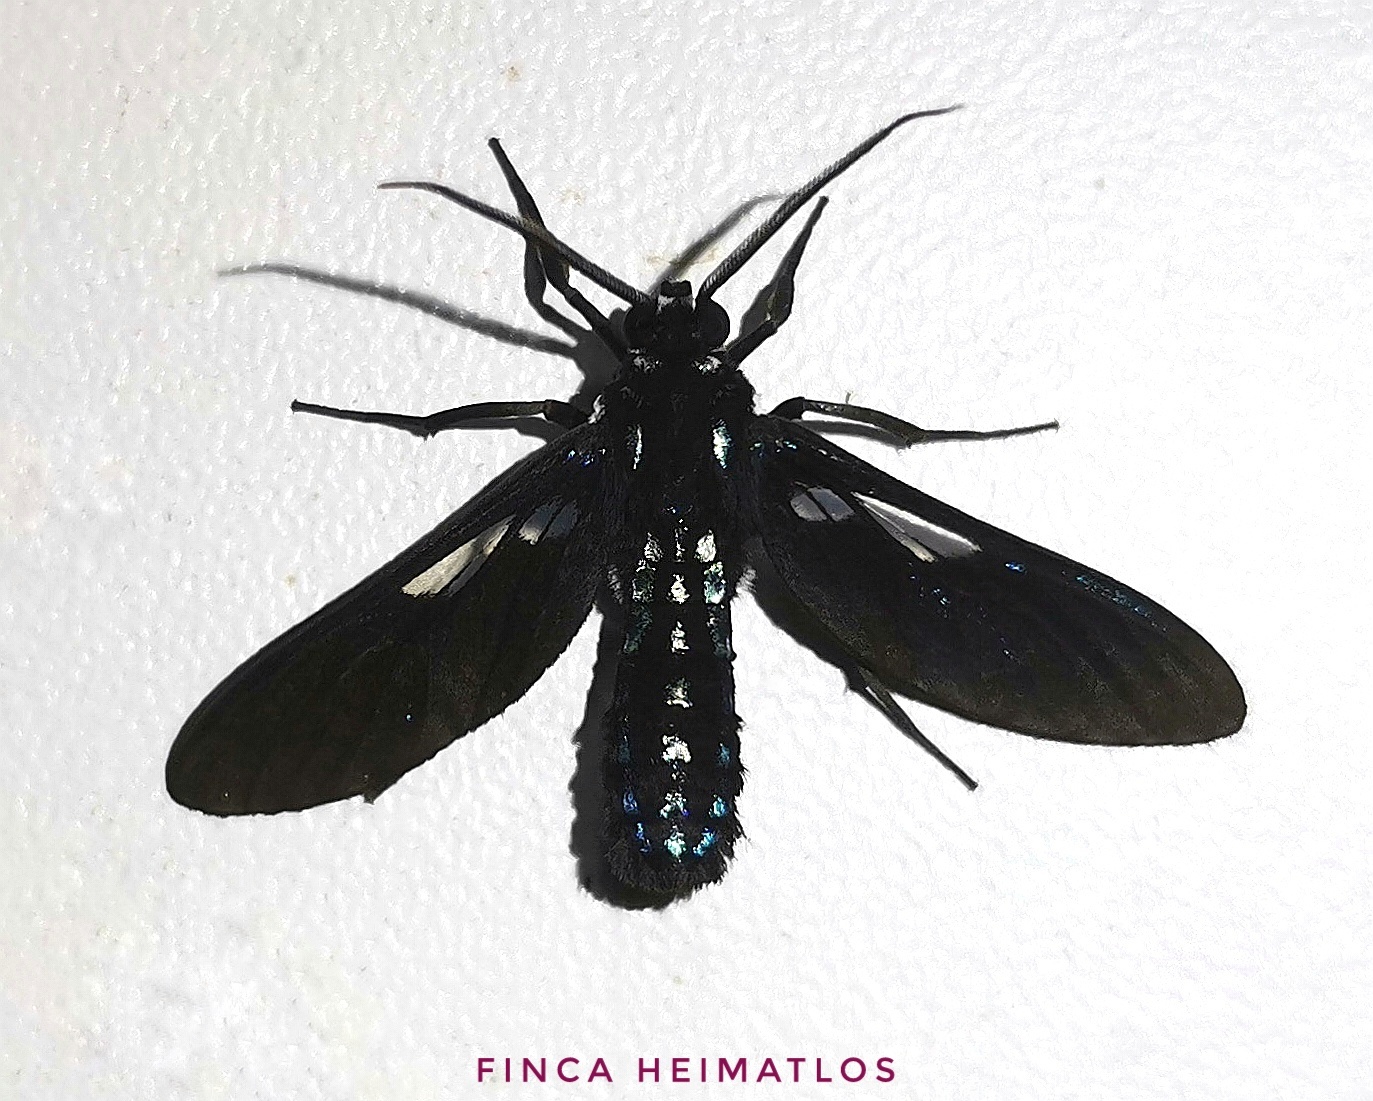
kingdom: Animalia
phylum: Arthropoda
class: Insecta
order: Lepidoptera
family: Erebidae
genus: Pseudosphenoptera
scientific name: Pseudosphenoptera chimaera
